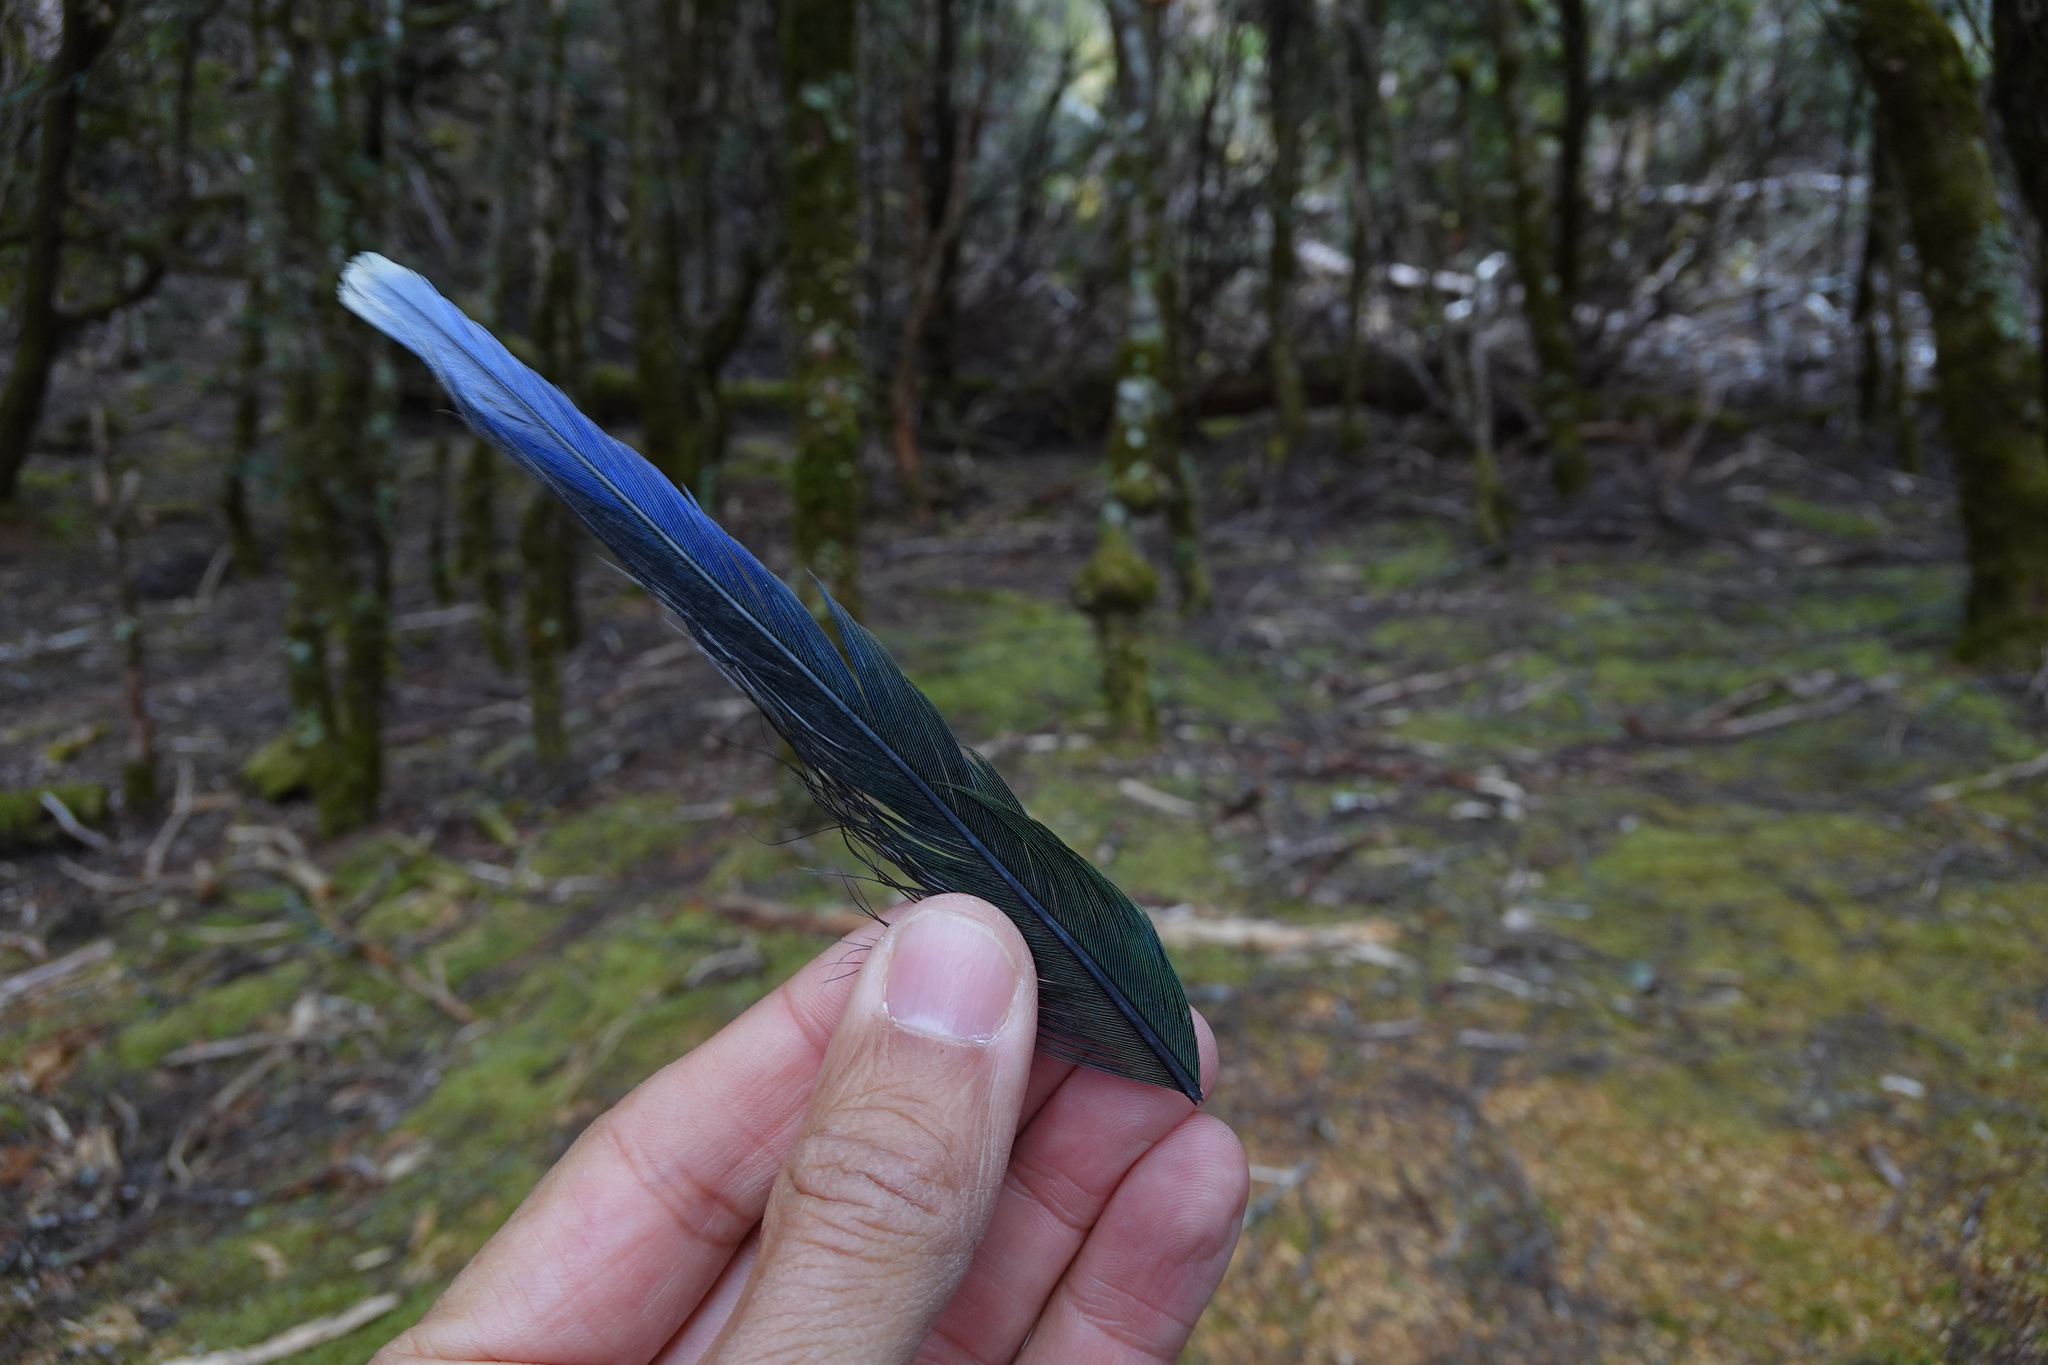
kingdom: Animalia
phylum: Chordata
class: Aves
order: Psittaciformes
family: Psittacidae
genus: Platycercus
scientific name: Platycercus caledonicus
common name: Green rosella
